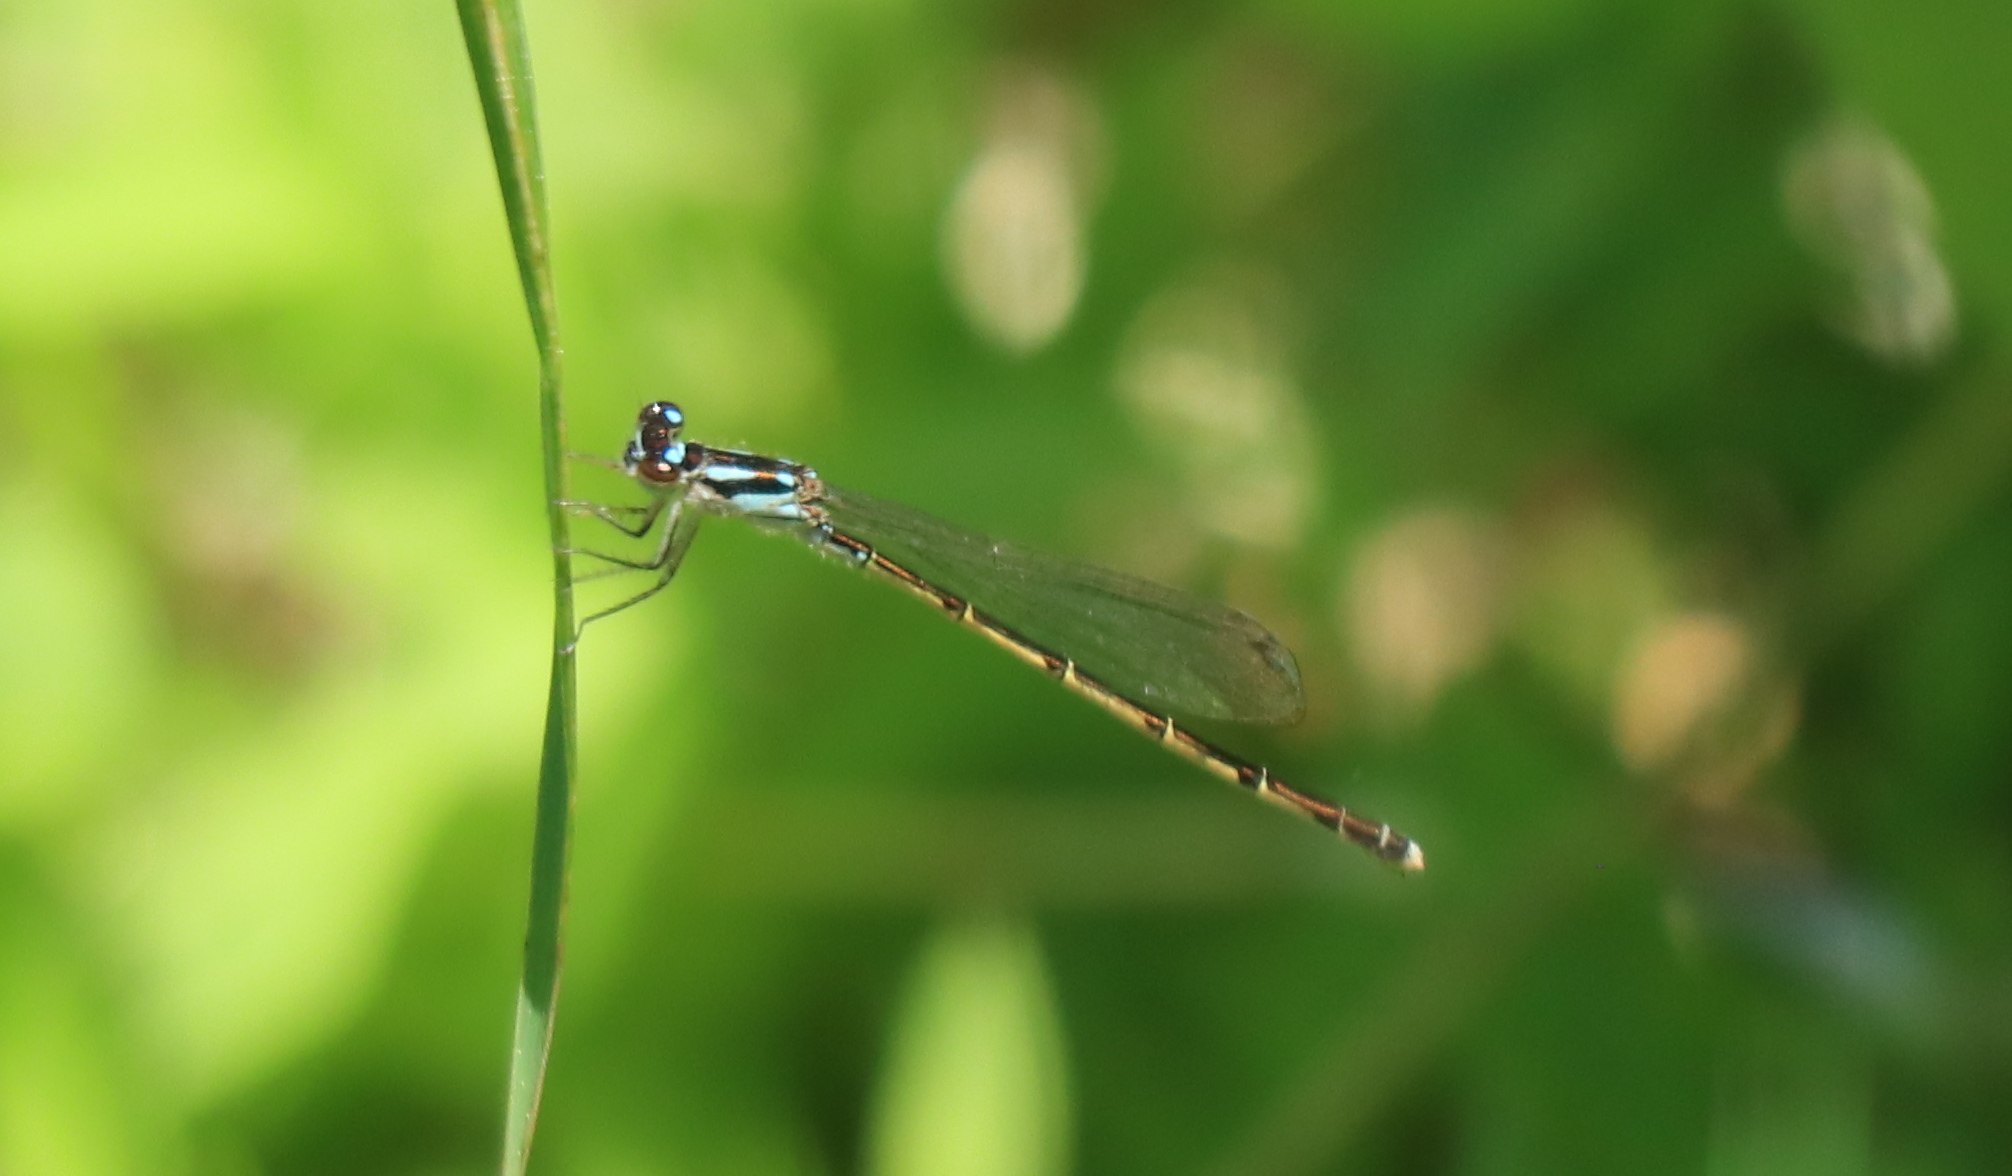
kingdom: Animalia
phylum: Arthropoda
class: Insecta
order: Odonata
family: Coenagrionidae
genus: Ischnura
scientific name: Ischnura posita
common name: Fragile forktail
